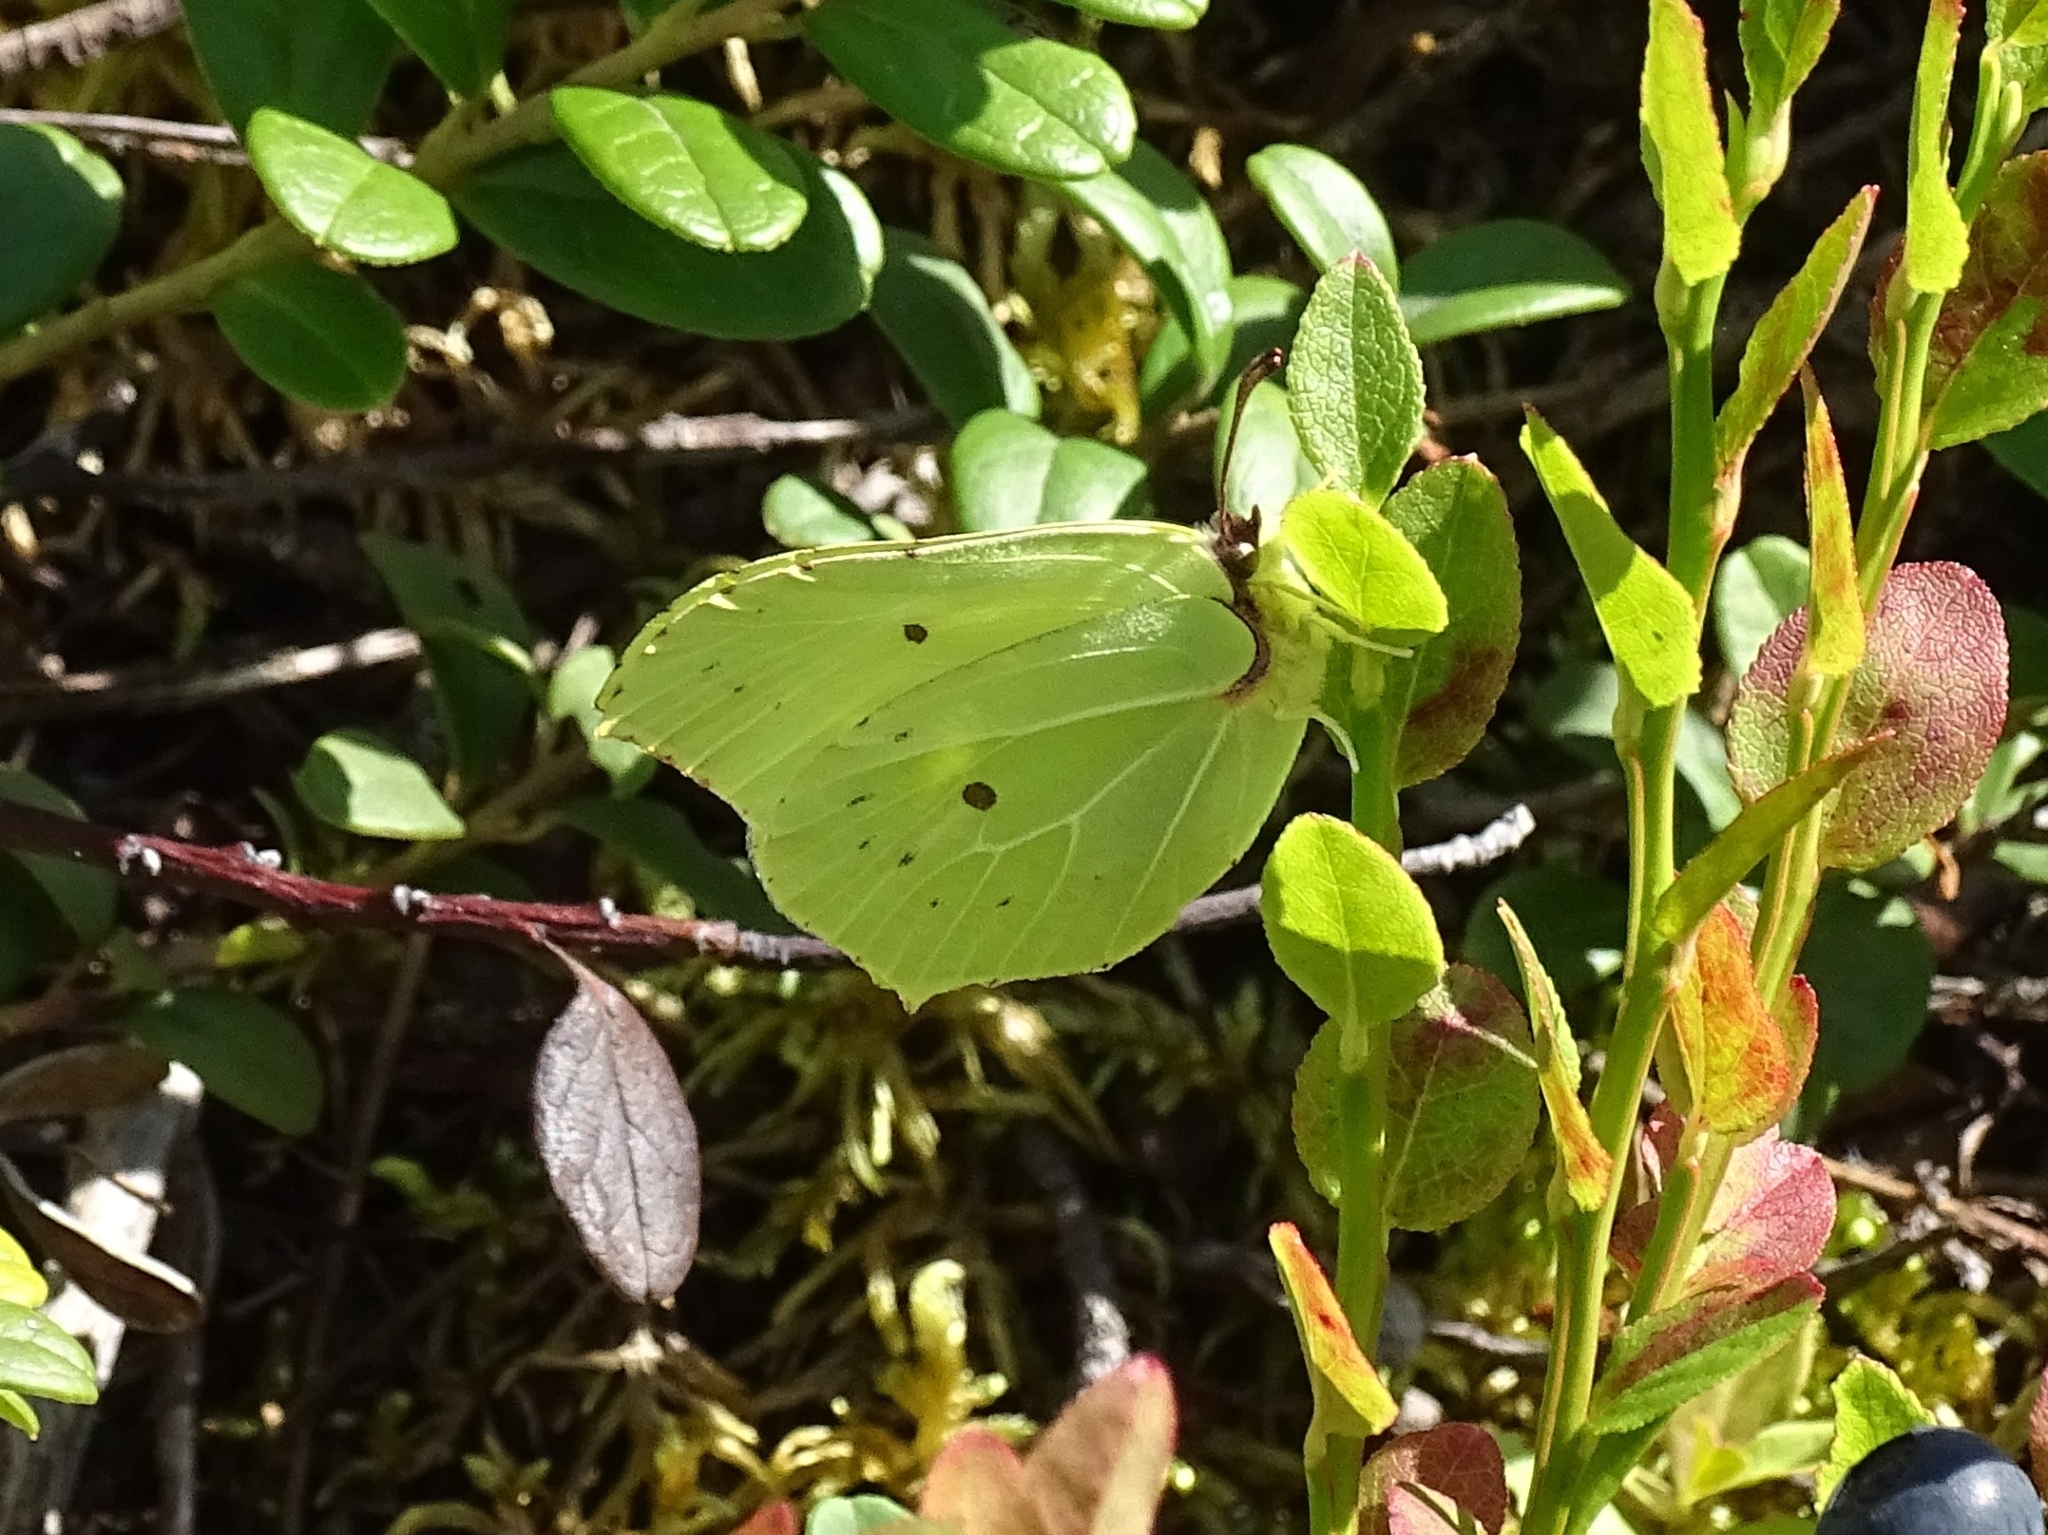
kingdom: Animalia
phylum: Arthropoda
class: Insecta
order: Lepidoptera
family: Pieridae
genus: Gonepteryx
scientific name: Gonepteryx rhamni
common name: Brimstone
